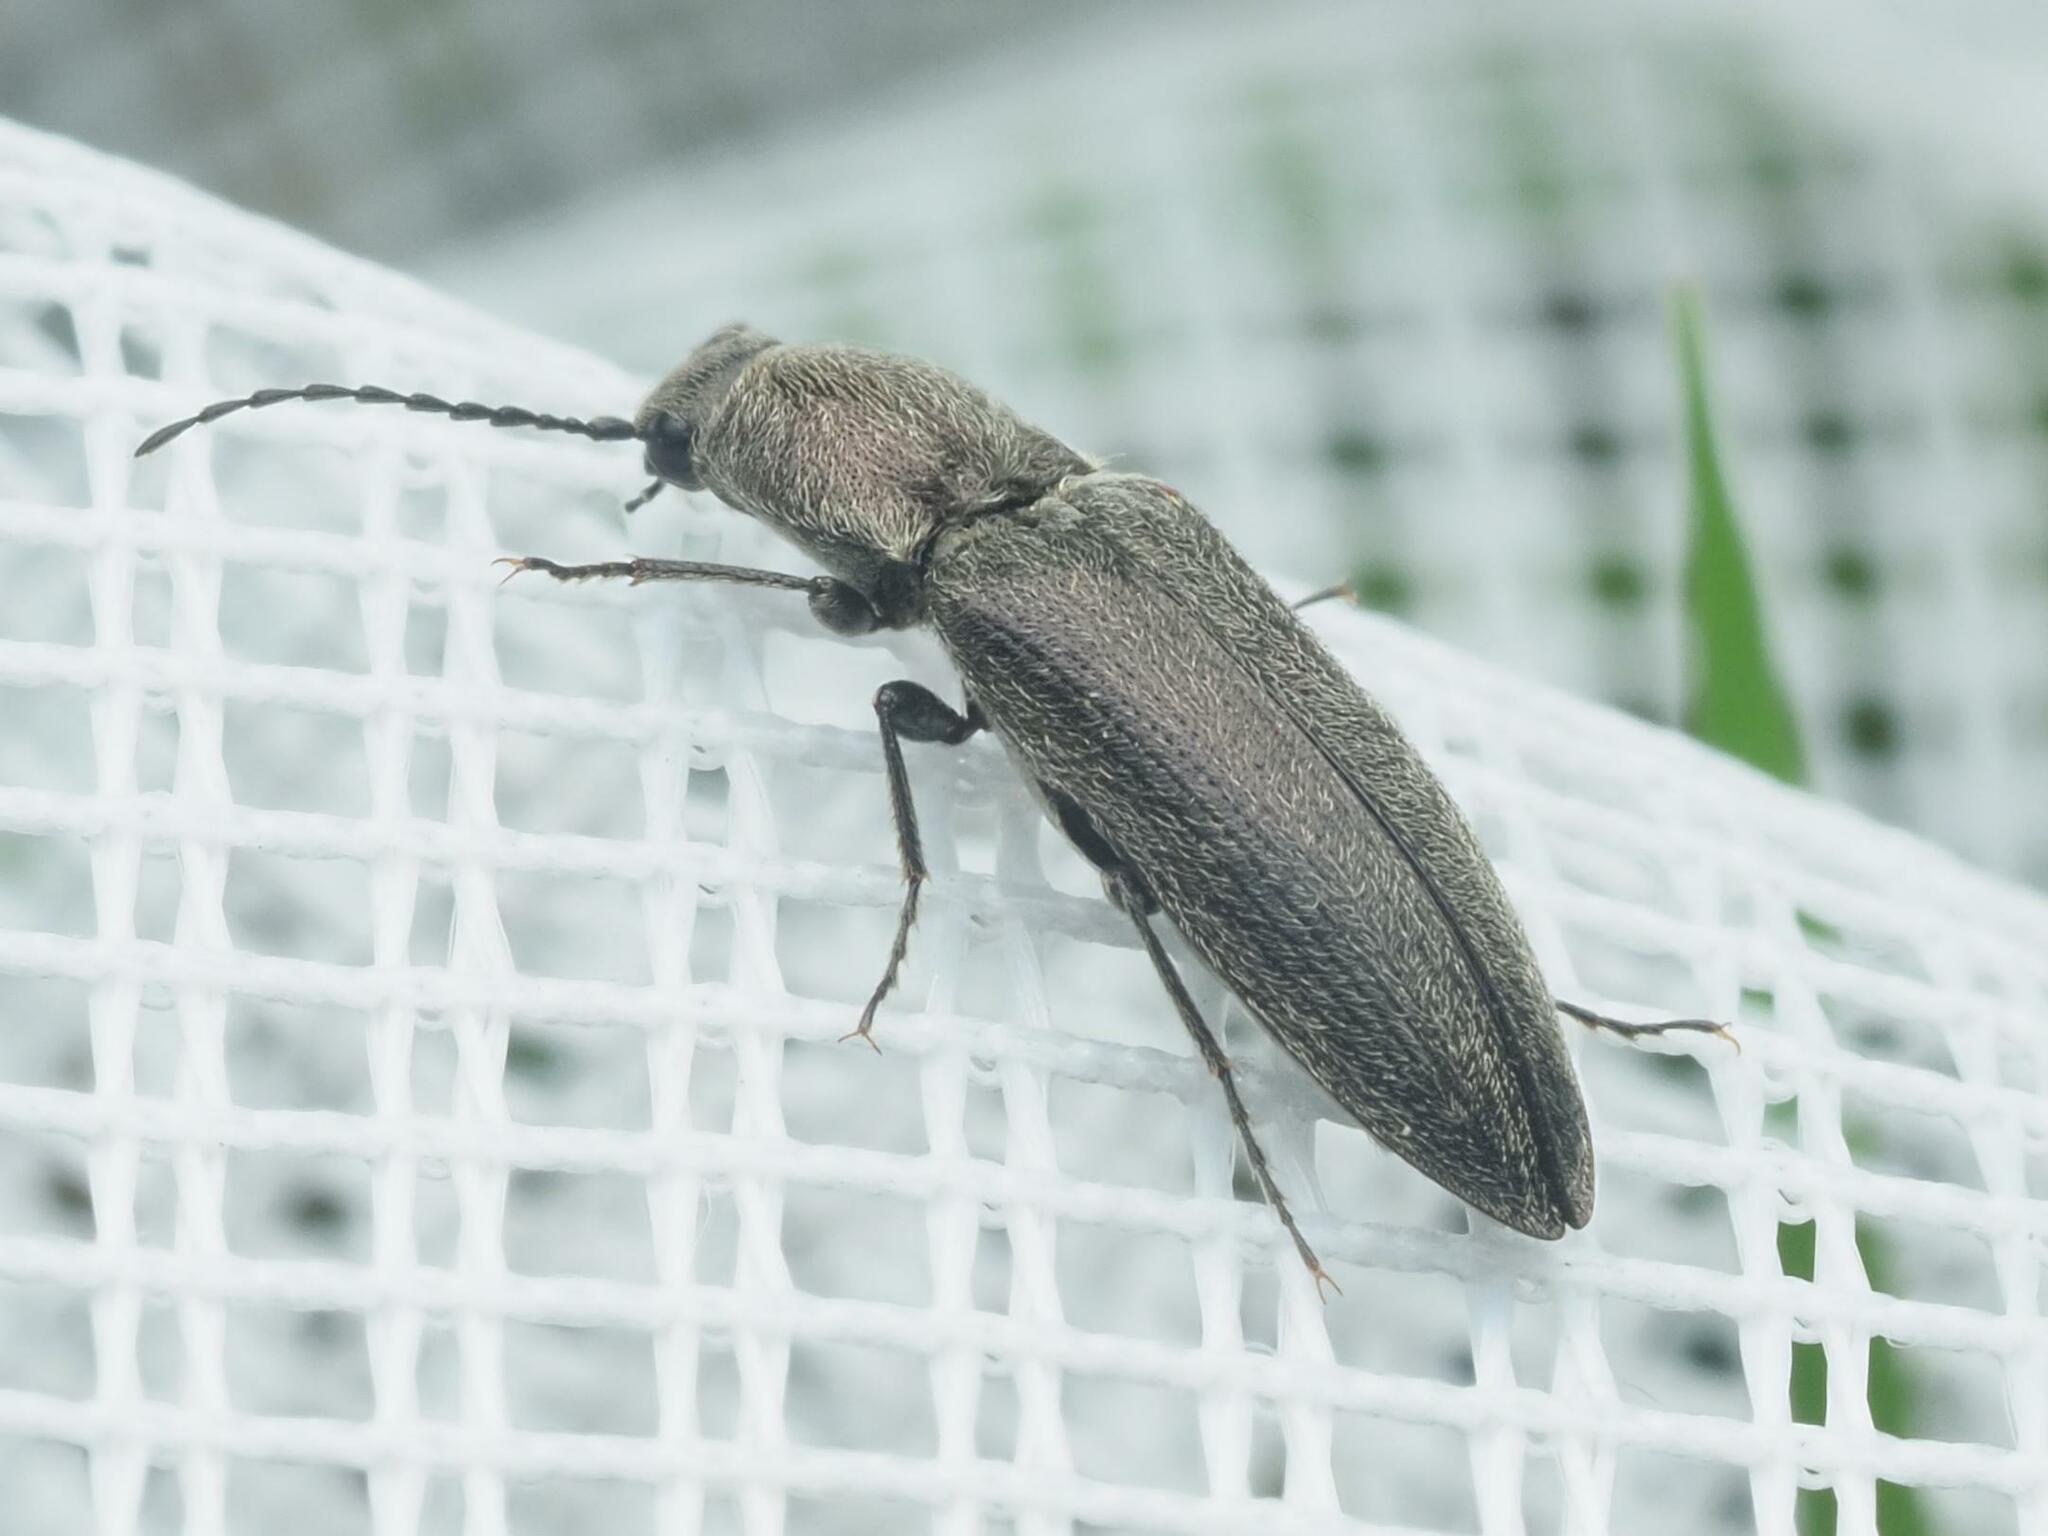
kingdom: Animalia
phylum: Arthropoda
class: Insecta
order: Coleoptera
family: Elateridae
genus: Cidnopus
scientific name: Cidnopus aeruginosus
